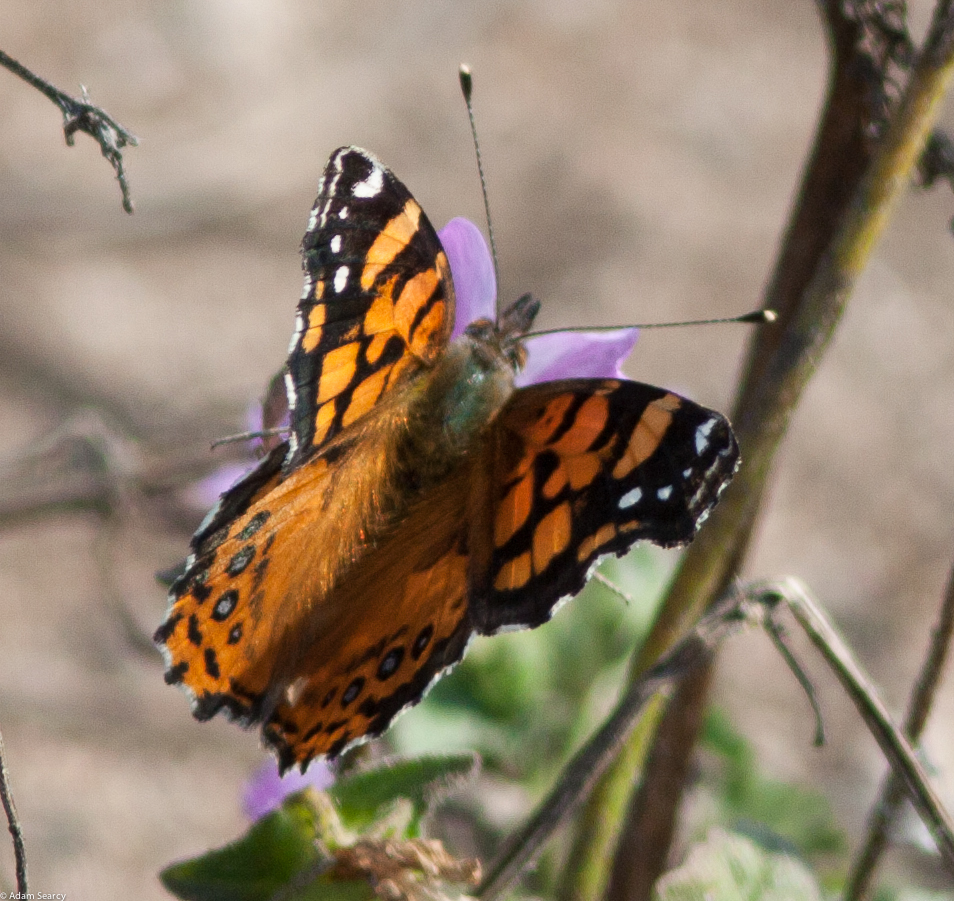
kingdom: Animalia
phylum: Arthropoda
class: Insecta
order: Lepidoptera
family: Nymphalidae
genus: Vanessa
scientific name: Vanessa annabella
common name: West coast lady
